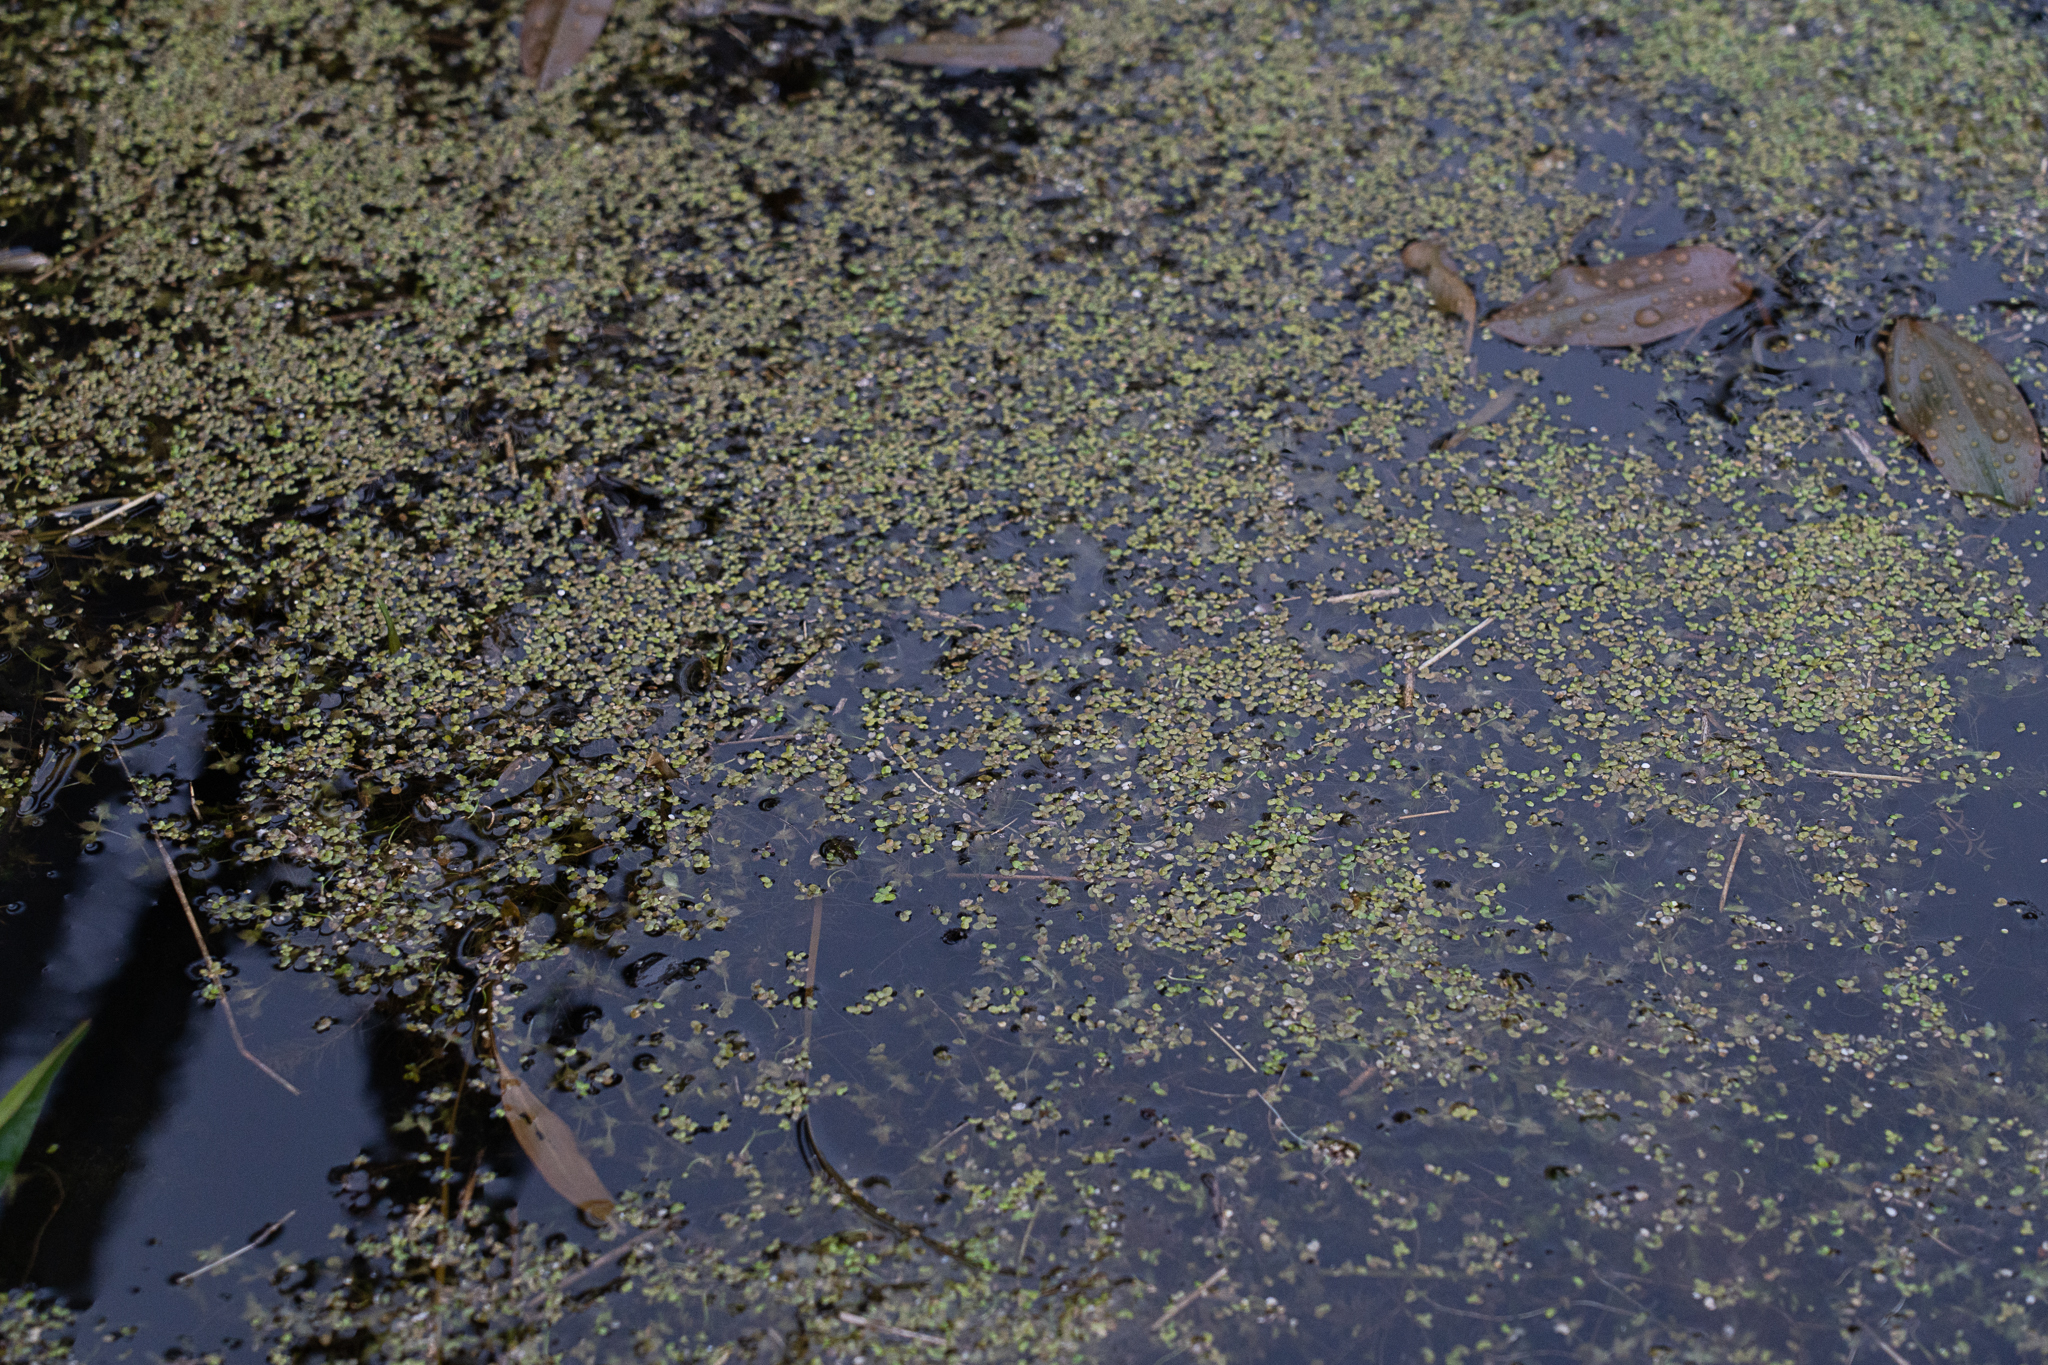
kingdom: Plantae
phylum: Tracheophyta
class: Liliopsida
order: Alismatales
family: Araceae
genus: Lemna
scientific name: Lemna minor
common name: Common duckweed
